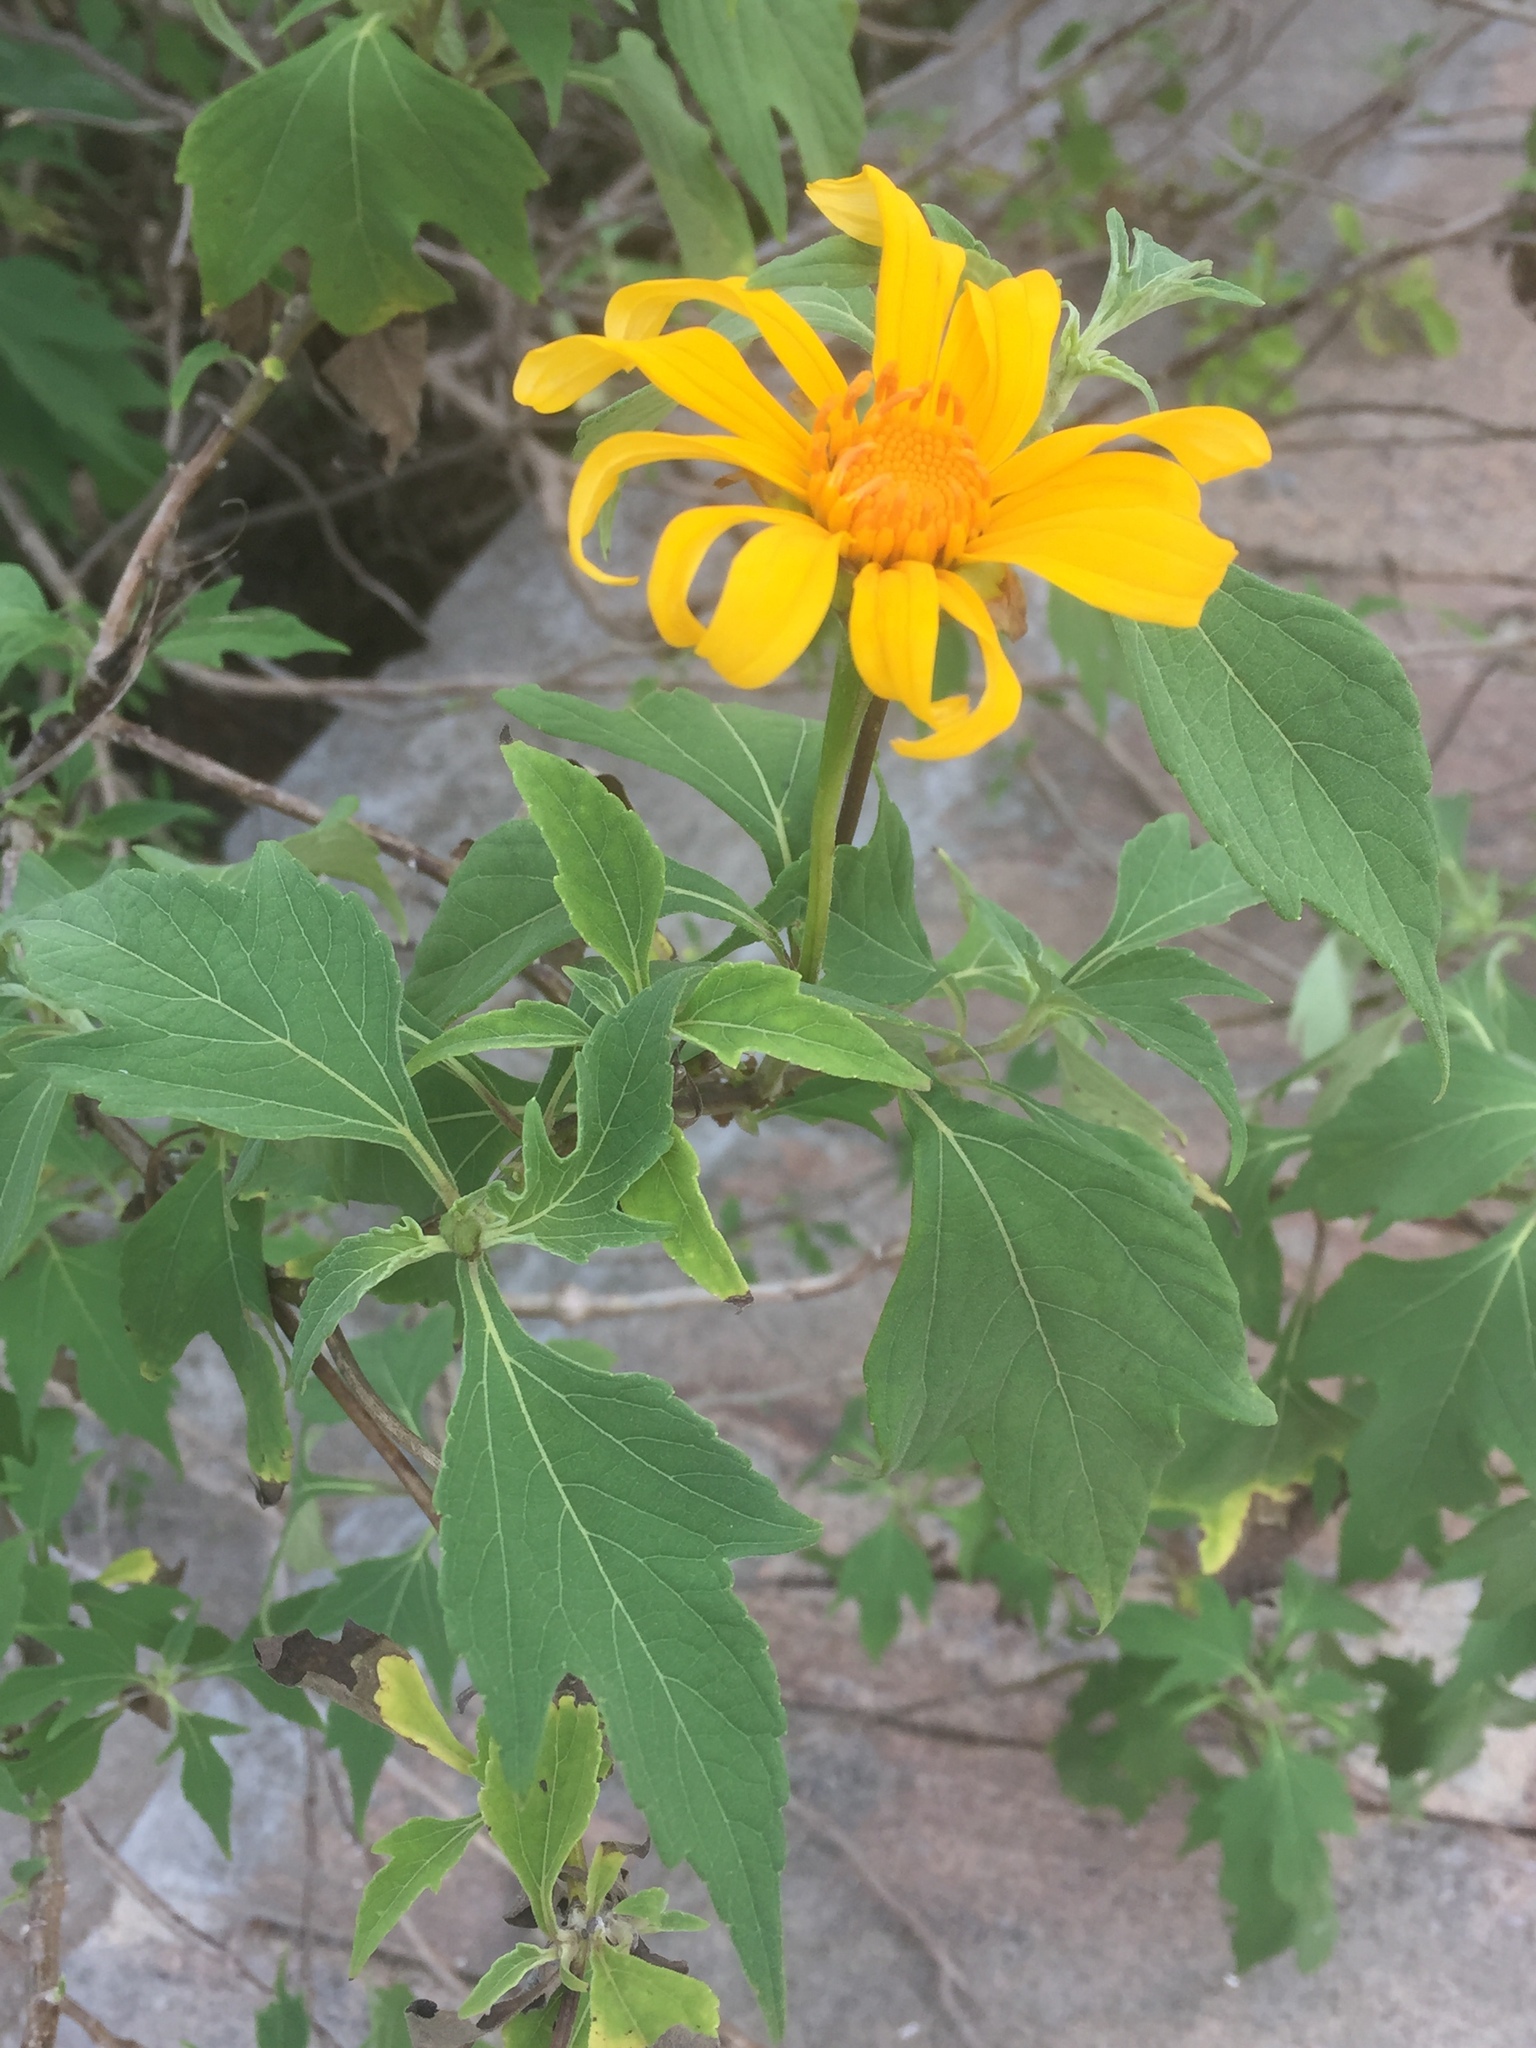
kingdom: Plantae
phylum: Tracheophyta
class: Magnoliopsida
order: Asterales
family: Asteraceae
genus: Tithonia
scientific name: Tithonia diversifolia
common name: Tree marigold
